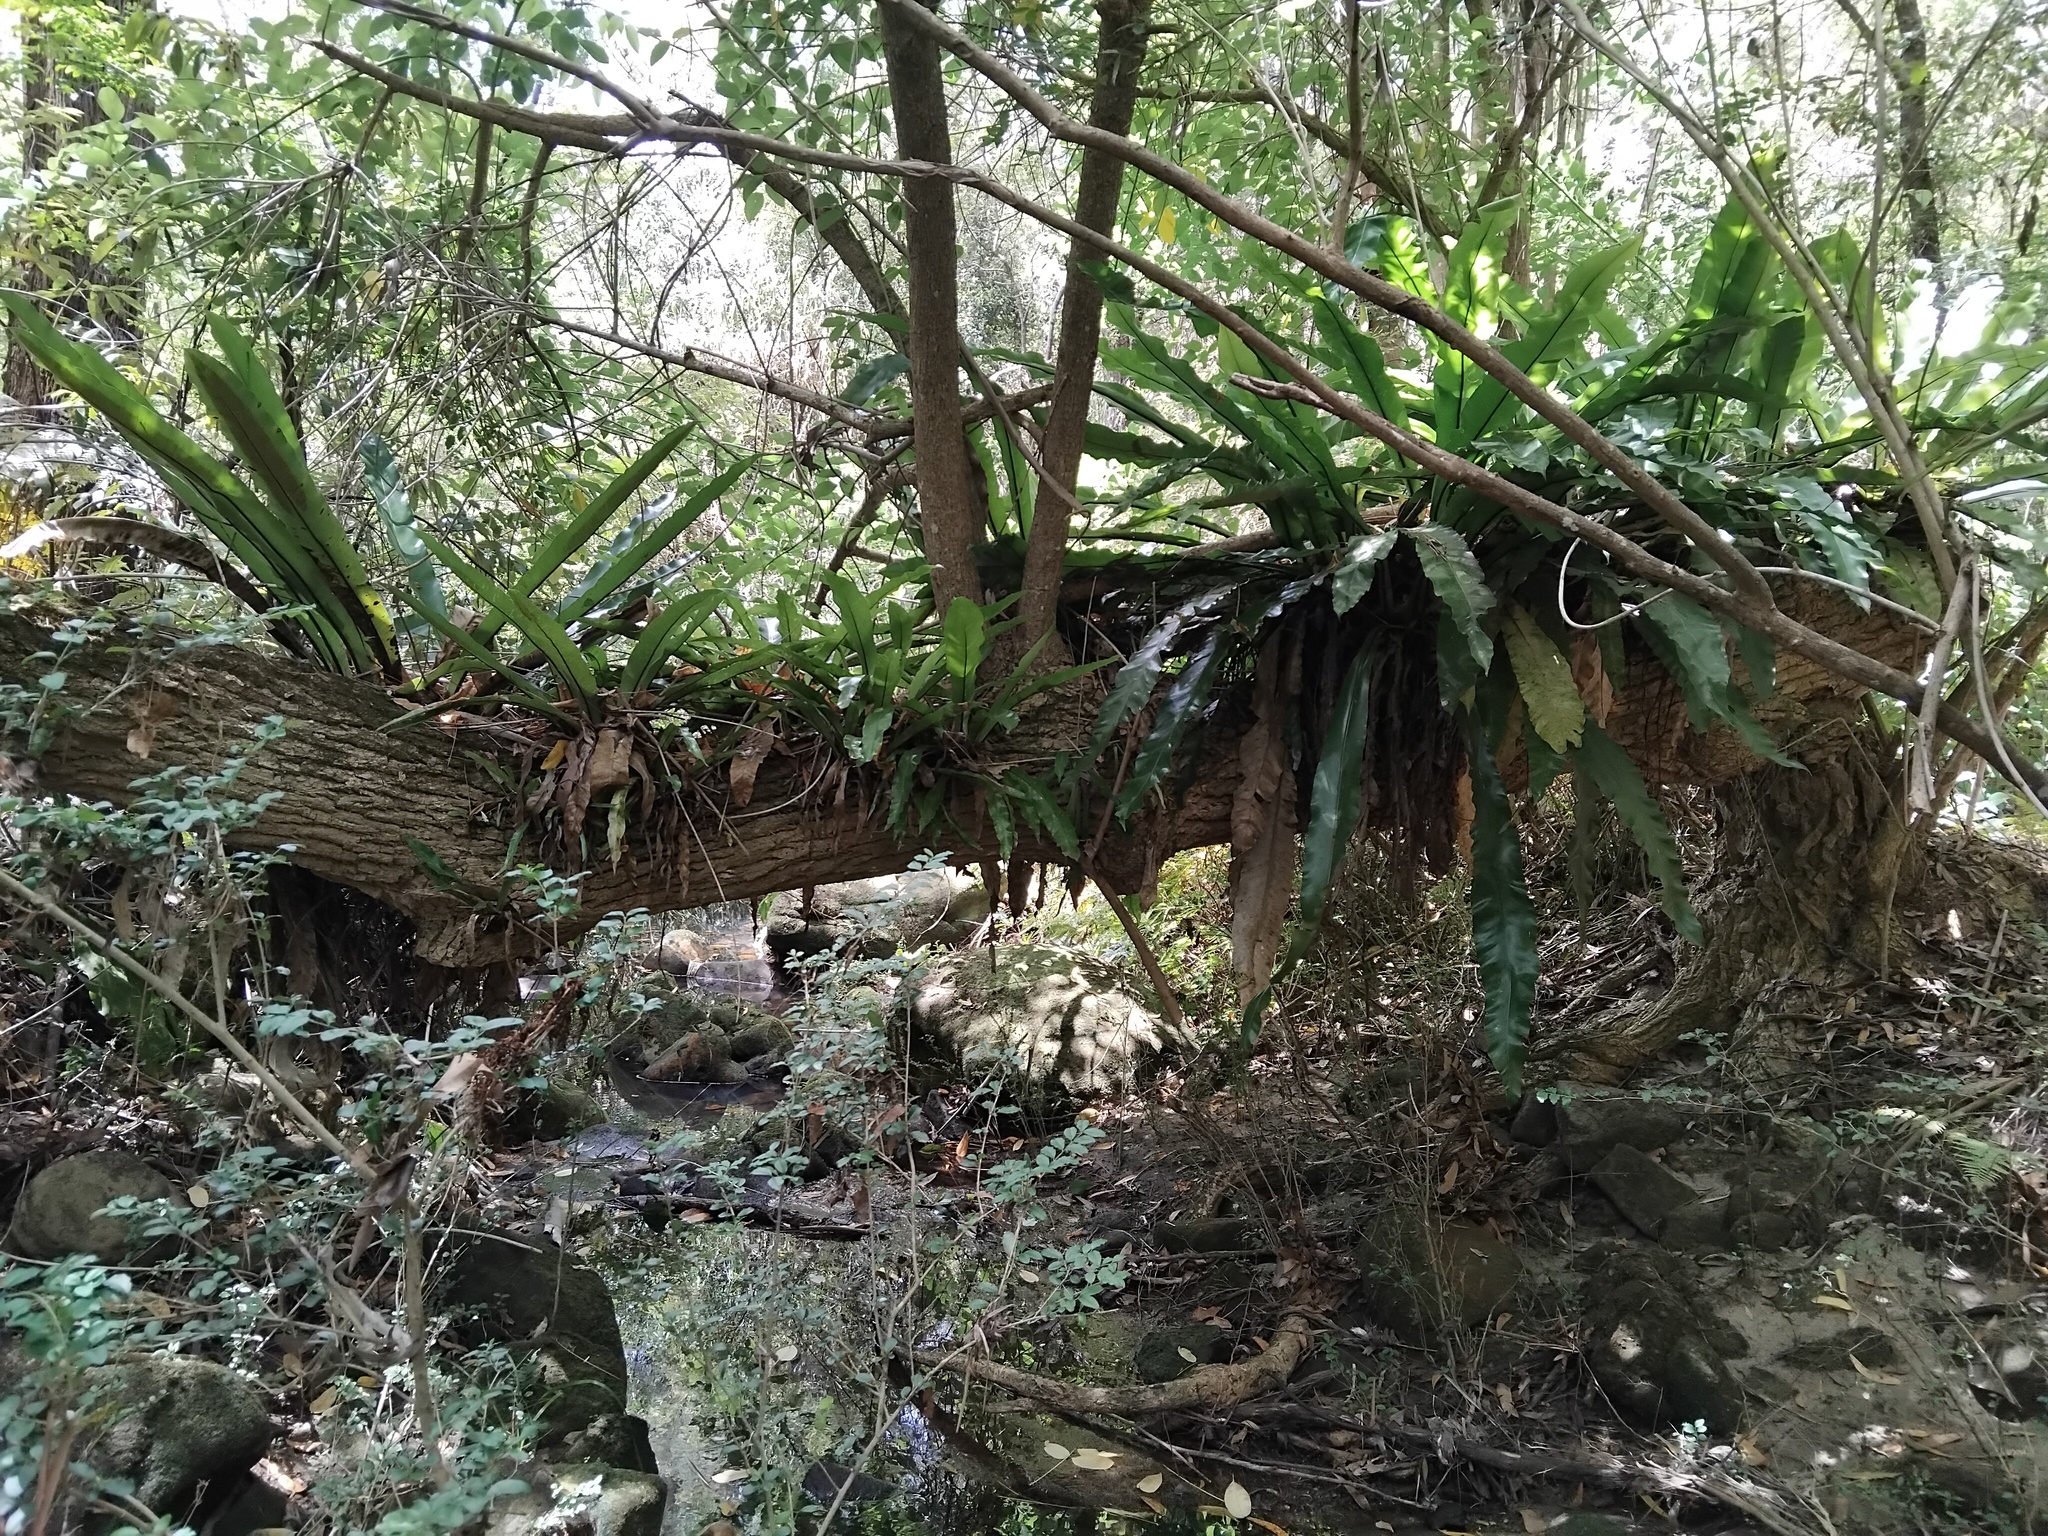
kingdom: Plantae
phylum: Tracheophyta
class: Polypodiopsida
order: Polypodiales
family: Aspleniaceae
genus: Asplenium
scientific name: Asplenium australasicum
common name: Bird's-nest fern
